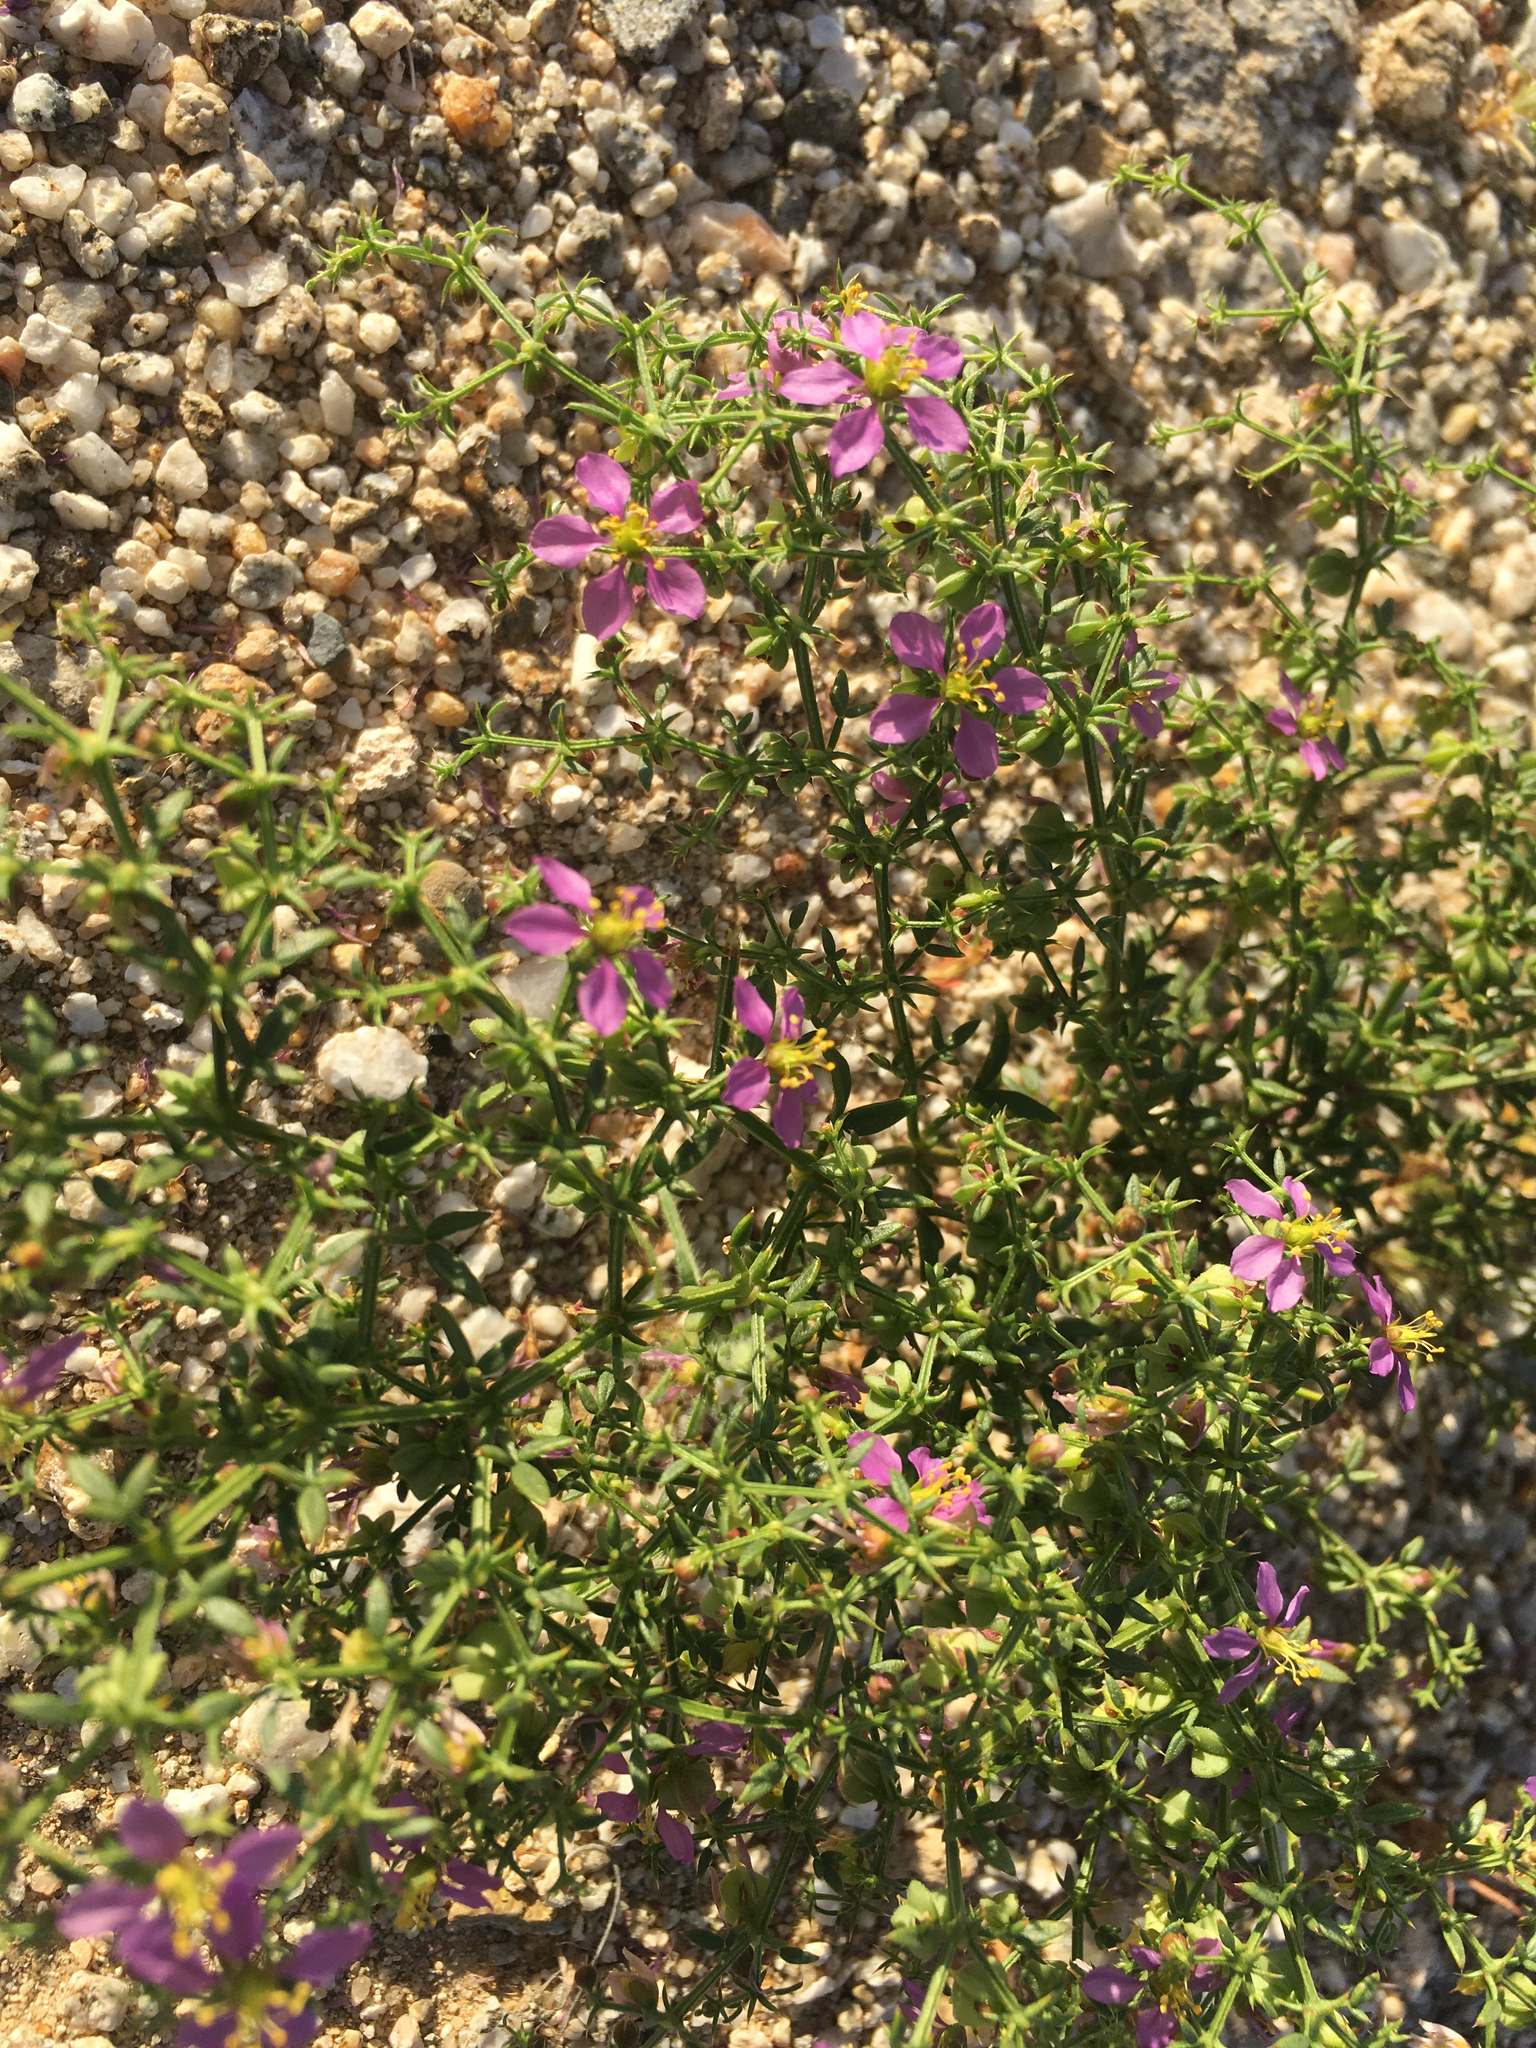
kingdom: Plantae
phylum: Tracheophyta
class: Magnoliopsida
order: Zygophyllales
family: Zygophyllaceae
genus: Fagonia
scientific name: Fagonia laevis
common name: California fagonbush
